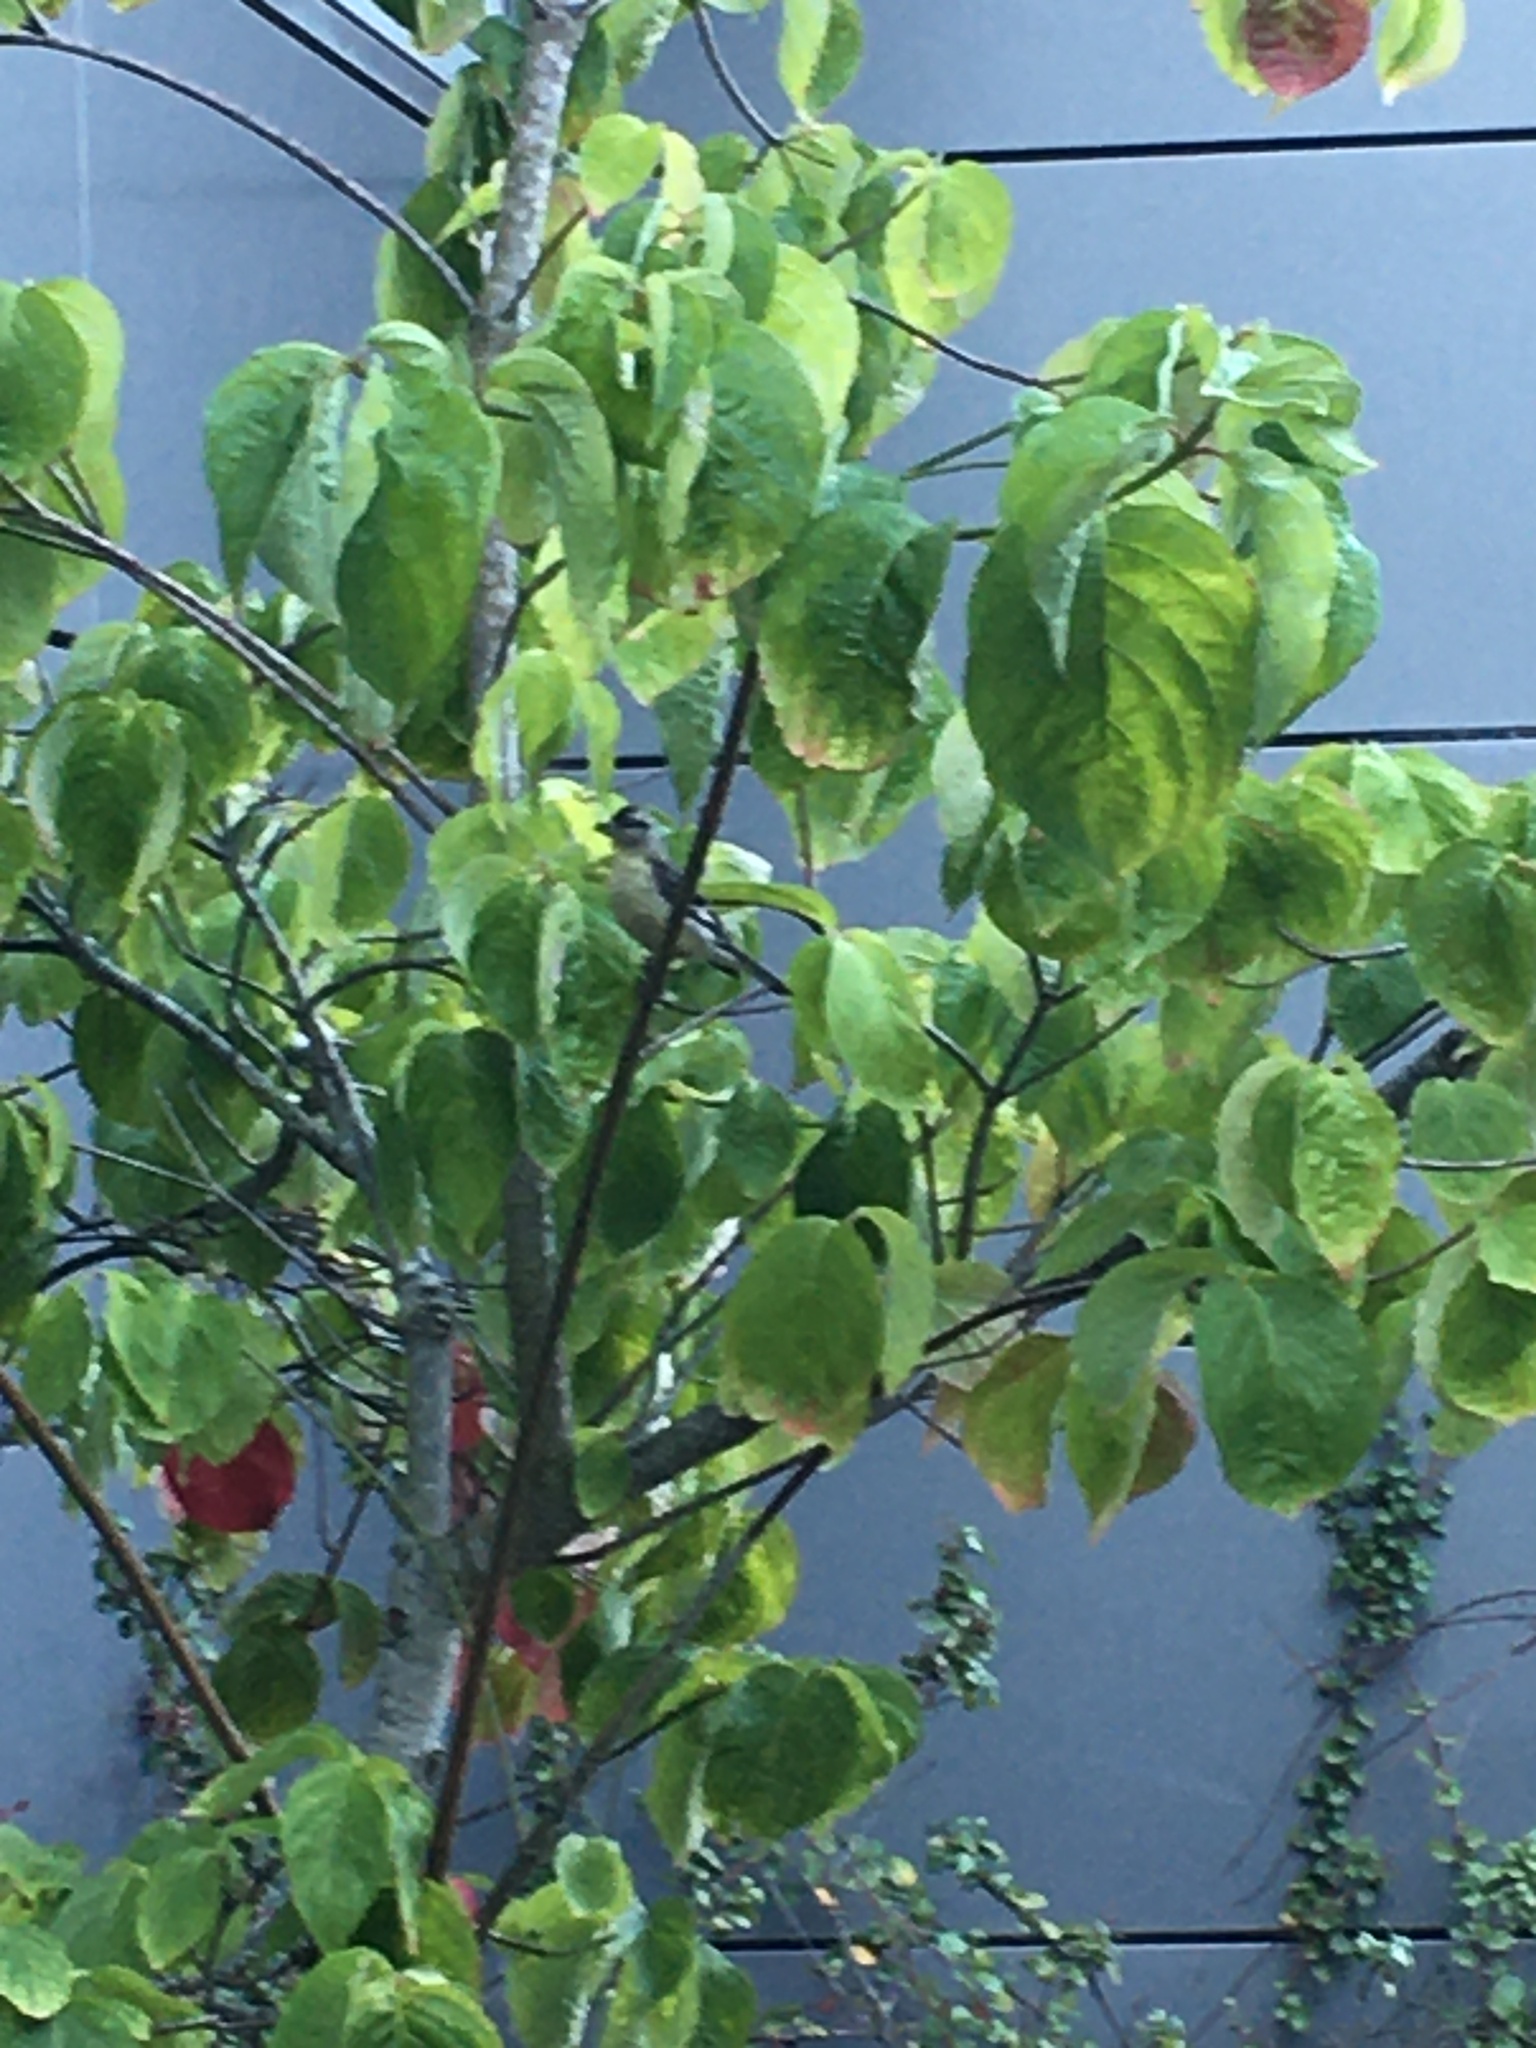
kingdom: Animalia
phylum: Chordata
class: Aves
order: Passeriformes
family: Fringillidae
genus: Spinus
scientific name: Spinus psaltria
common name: Lesser goldfinch
